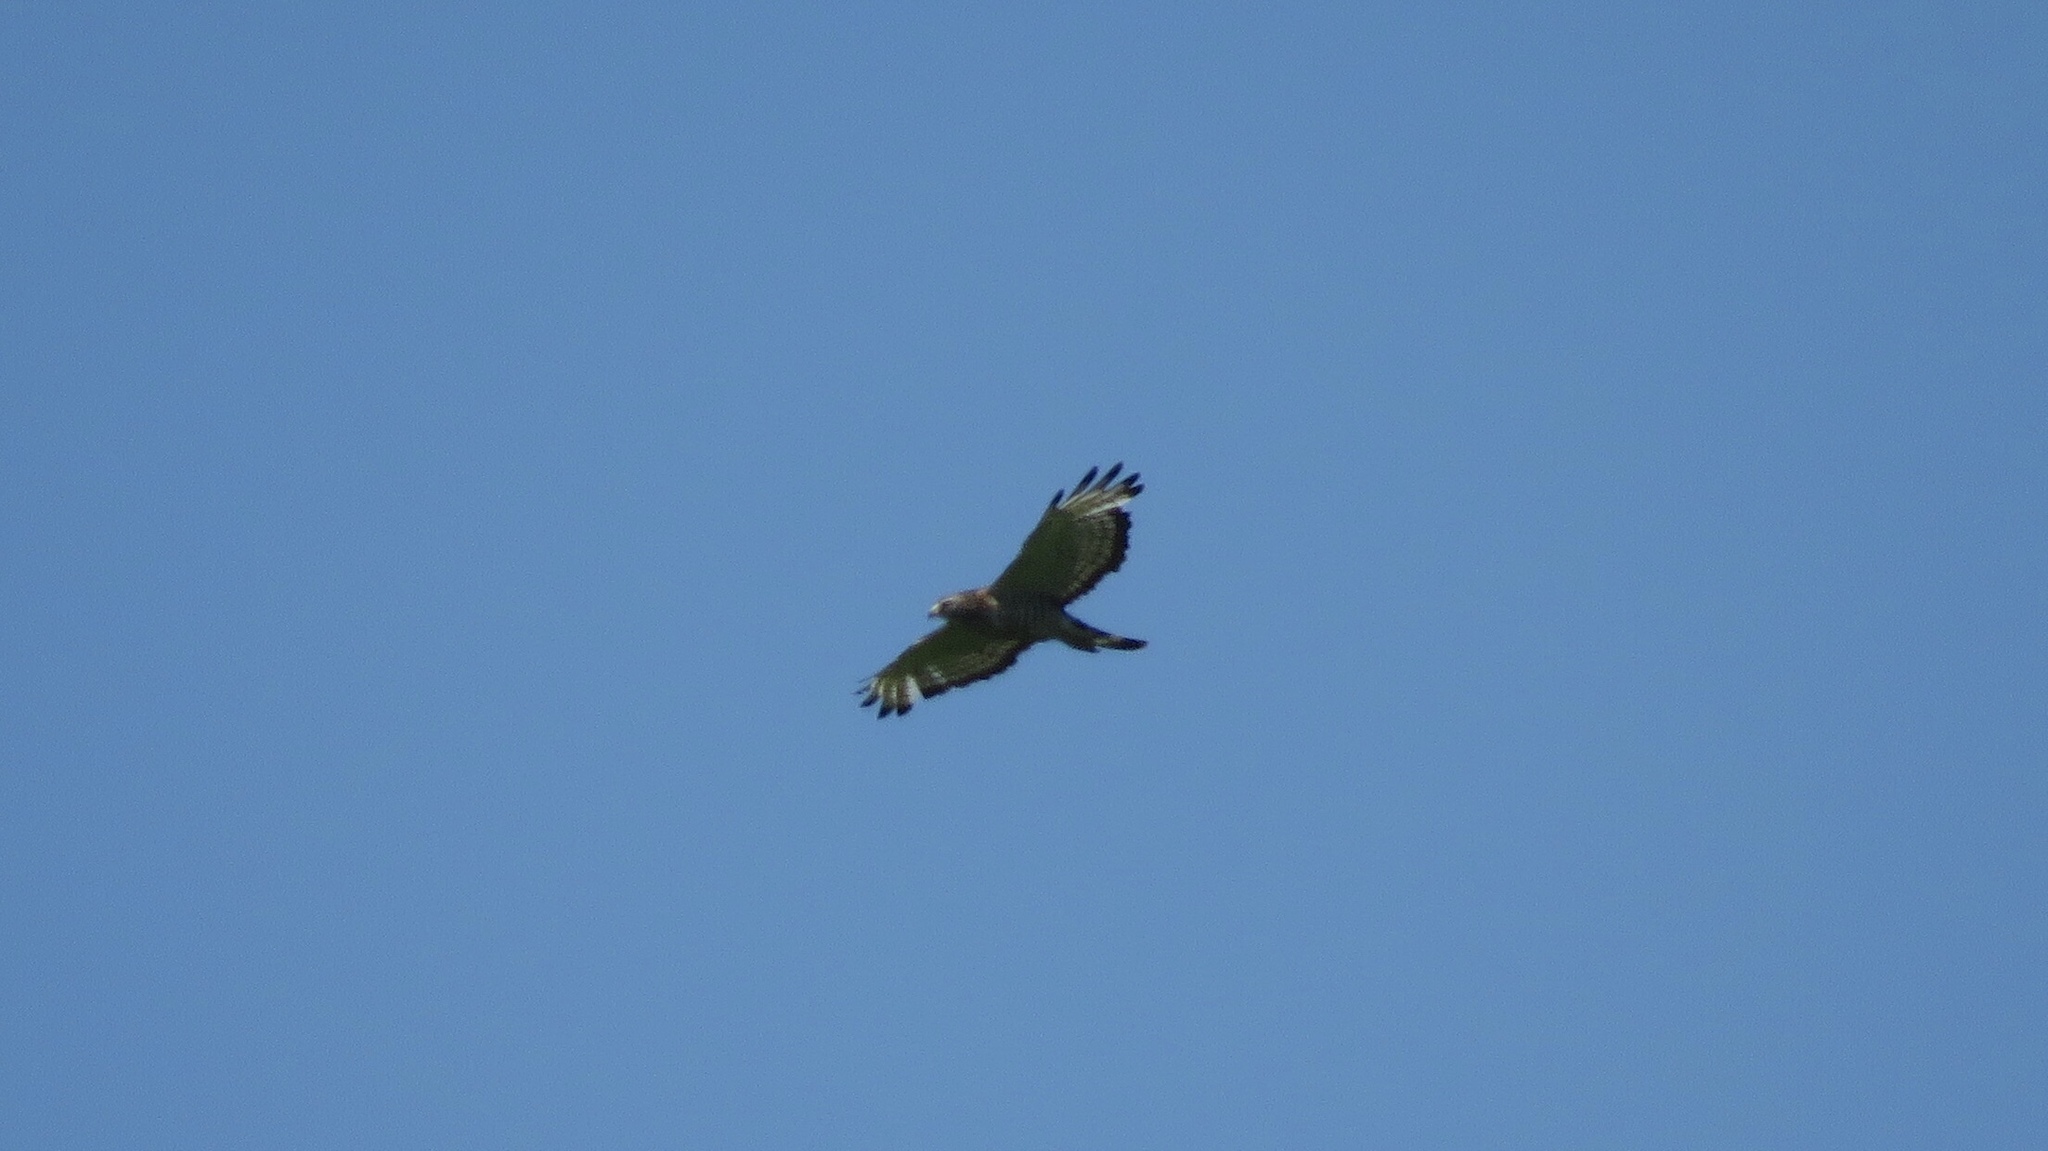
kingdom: Animalia
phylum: Chordata
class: Aves
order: Accipitriformes
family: Accipitridae
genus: Buteo
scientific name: Buteo platypterus
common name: Broad-winged hawk
